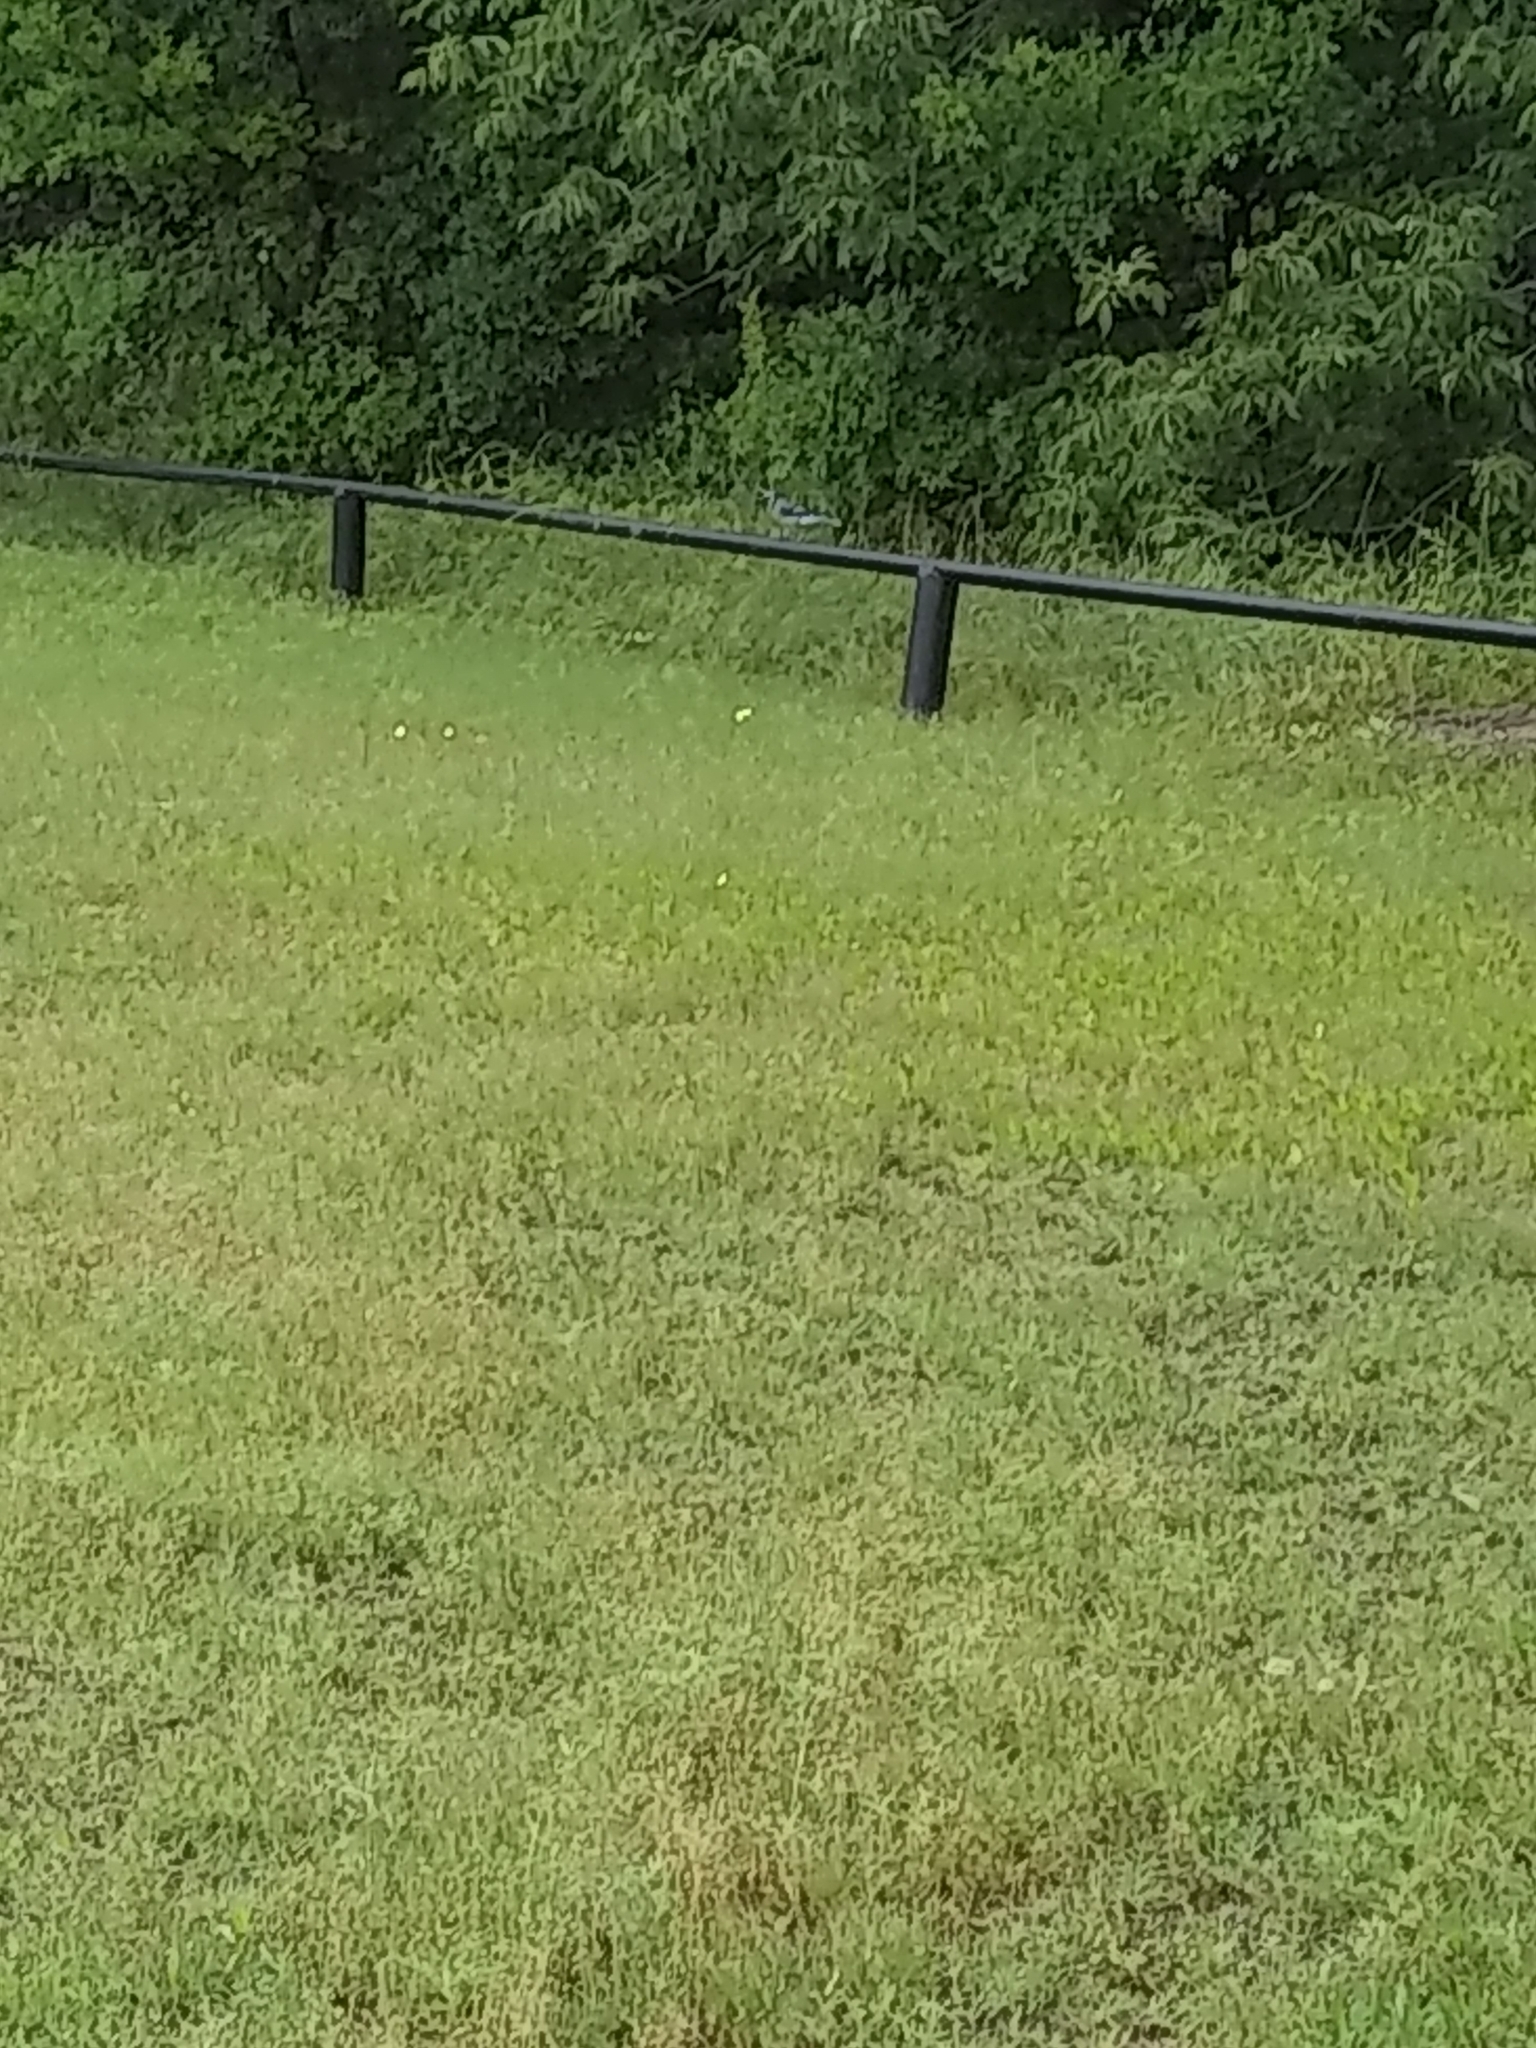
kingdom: Animalia
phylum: Chordata
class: Aves
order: Passeriformes
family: Corvidae
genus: Cyanocitta
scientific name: Cyanocitta cristata
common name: Blue jay
